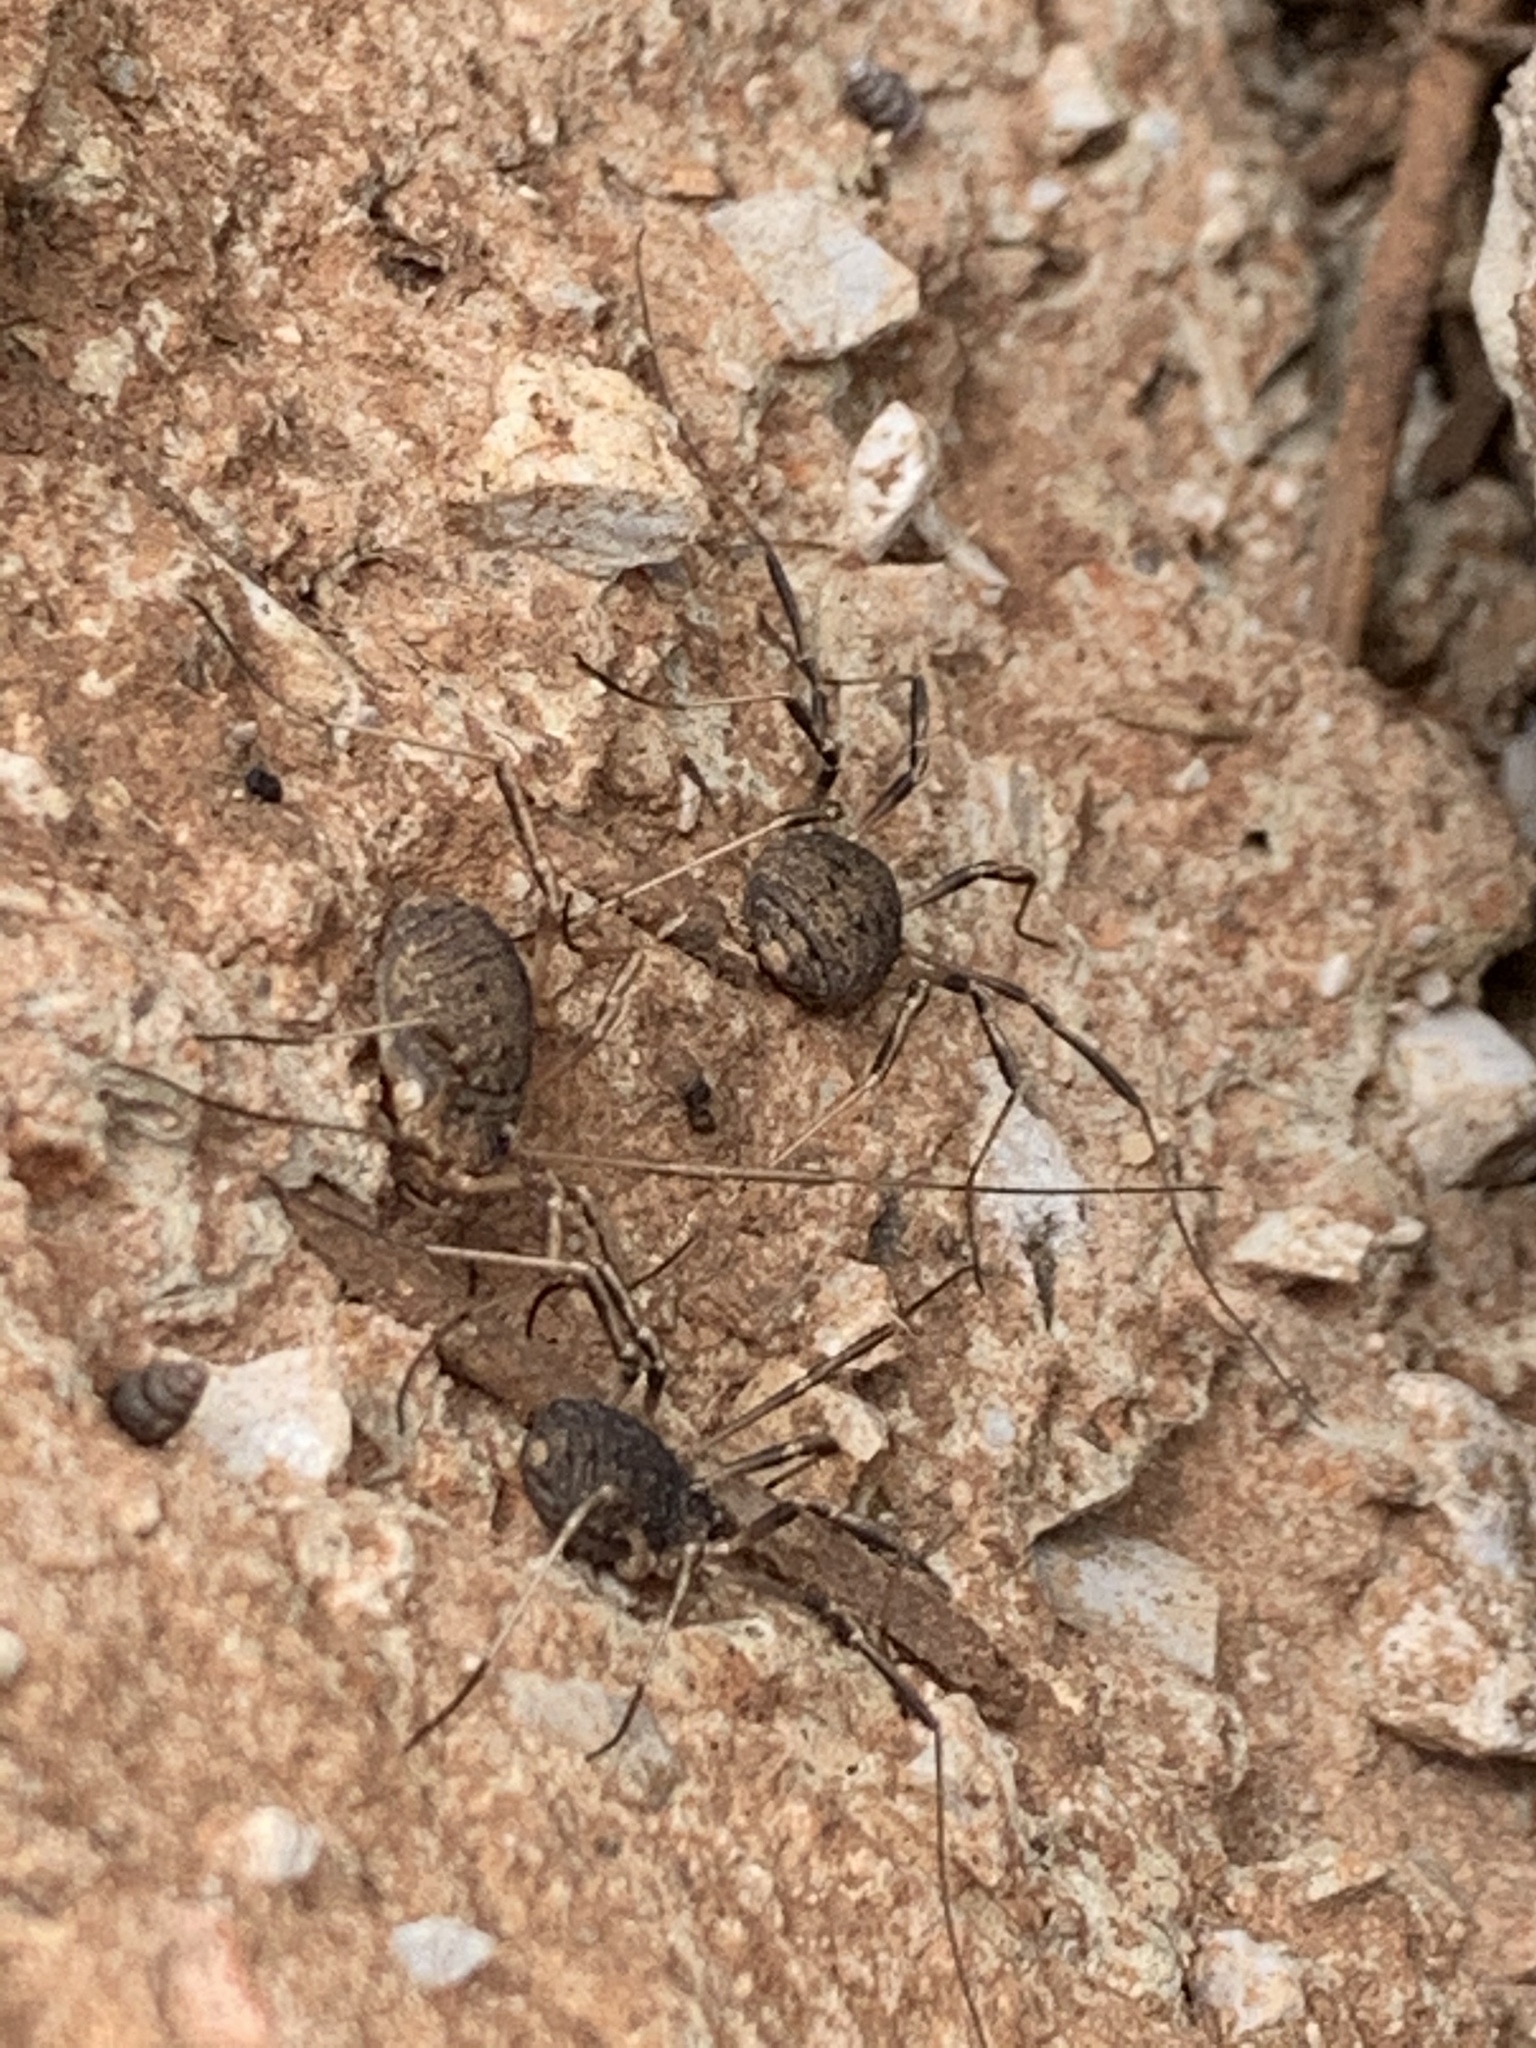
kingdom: Animalia
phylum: Arthropoda
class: Arachnida
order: Opiliones
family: Sclerosomatidae
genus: Eumesosoma
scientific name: Eumesosoma roeweri
